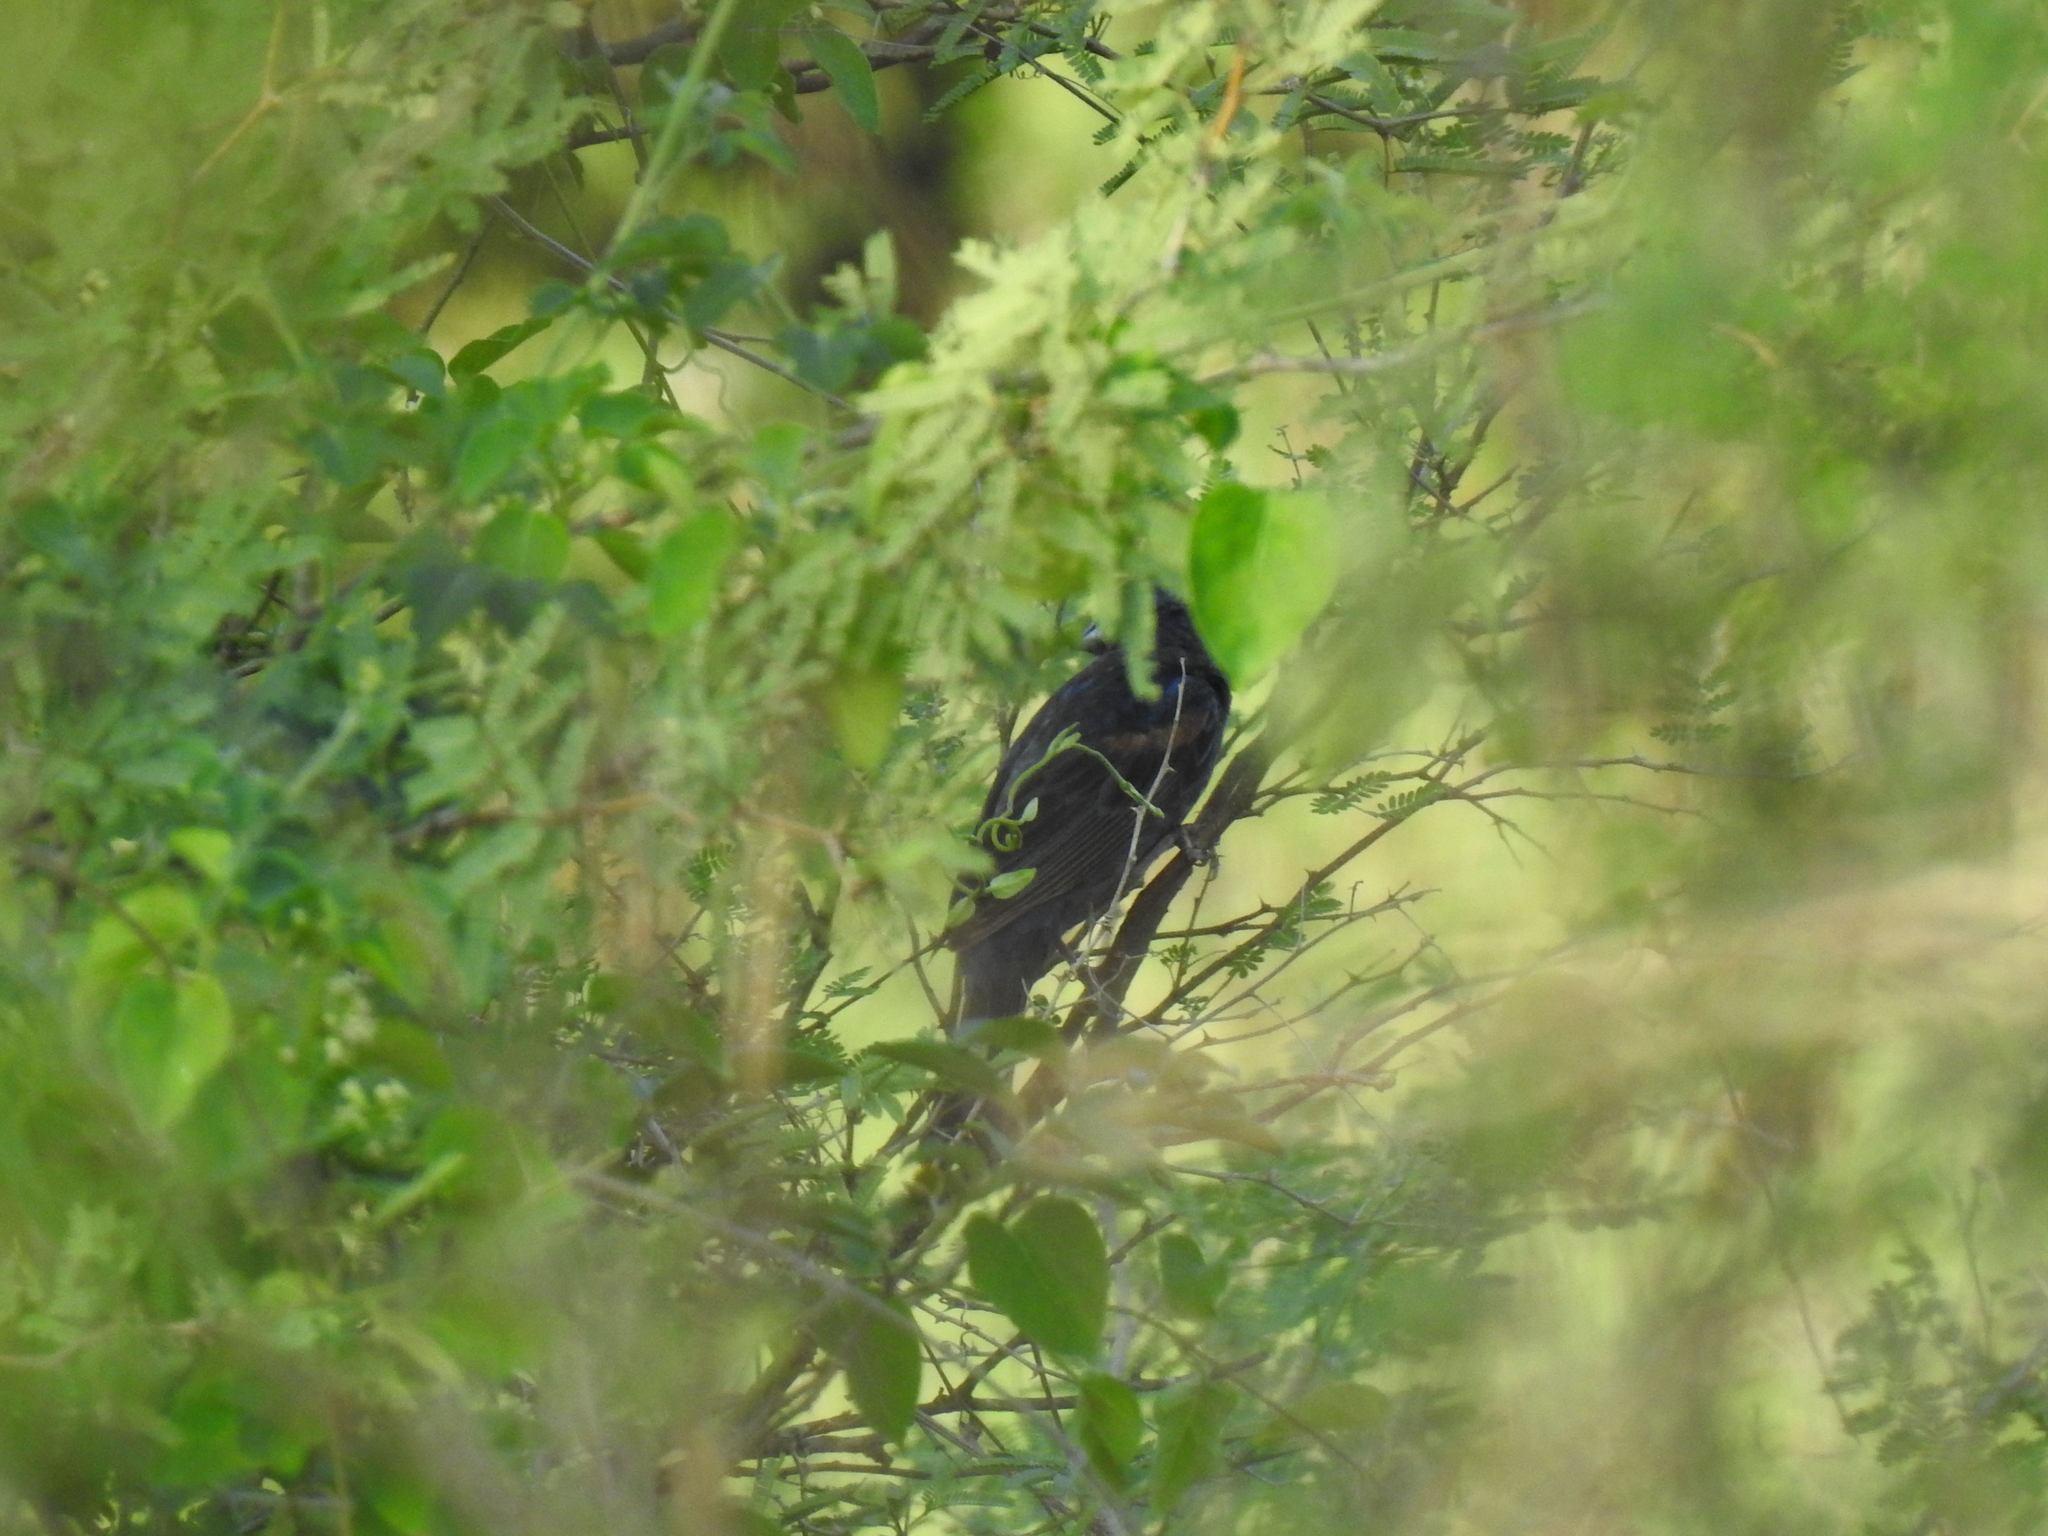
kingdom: Animalia
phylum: Chordata
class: Aves
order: Passeriformes
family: Cardinalidae
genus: Passerina
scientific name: Passerina caerulea
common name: Blue grosbeak
